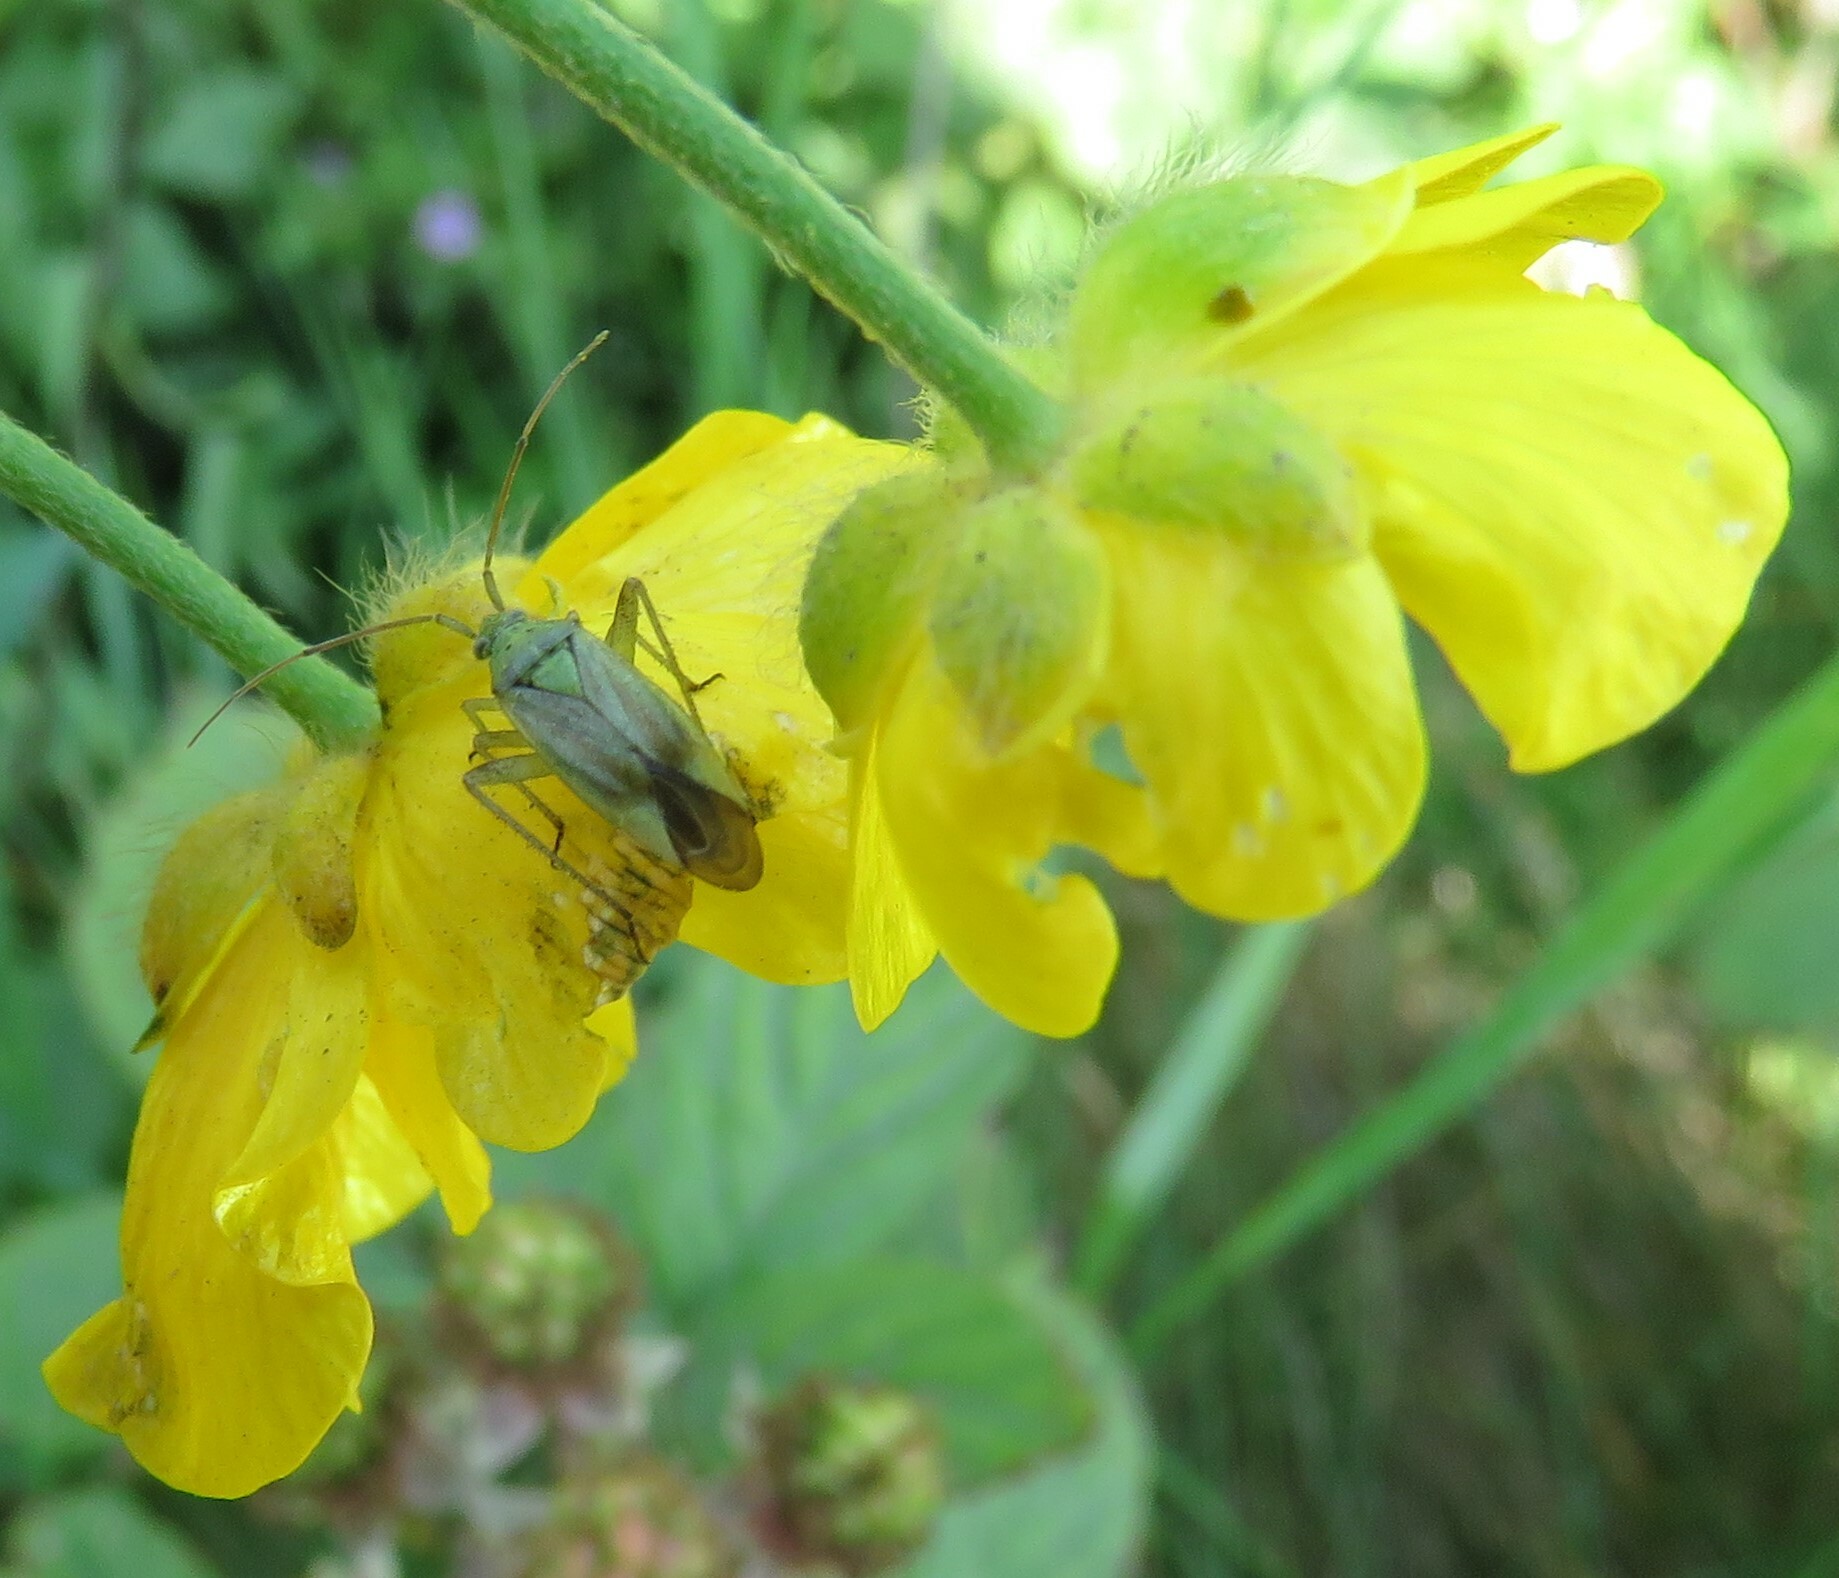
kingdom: Animalia
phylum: Arthropoda
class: Insecta
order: Hemiptera
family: Miridae
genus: Closterotomus
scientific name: Closterotomus norvegicus
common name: Plant bug
